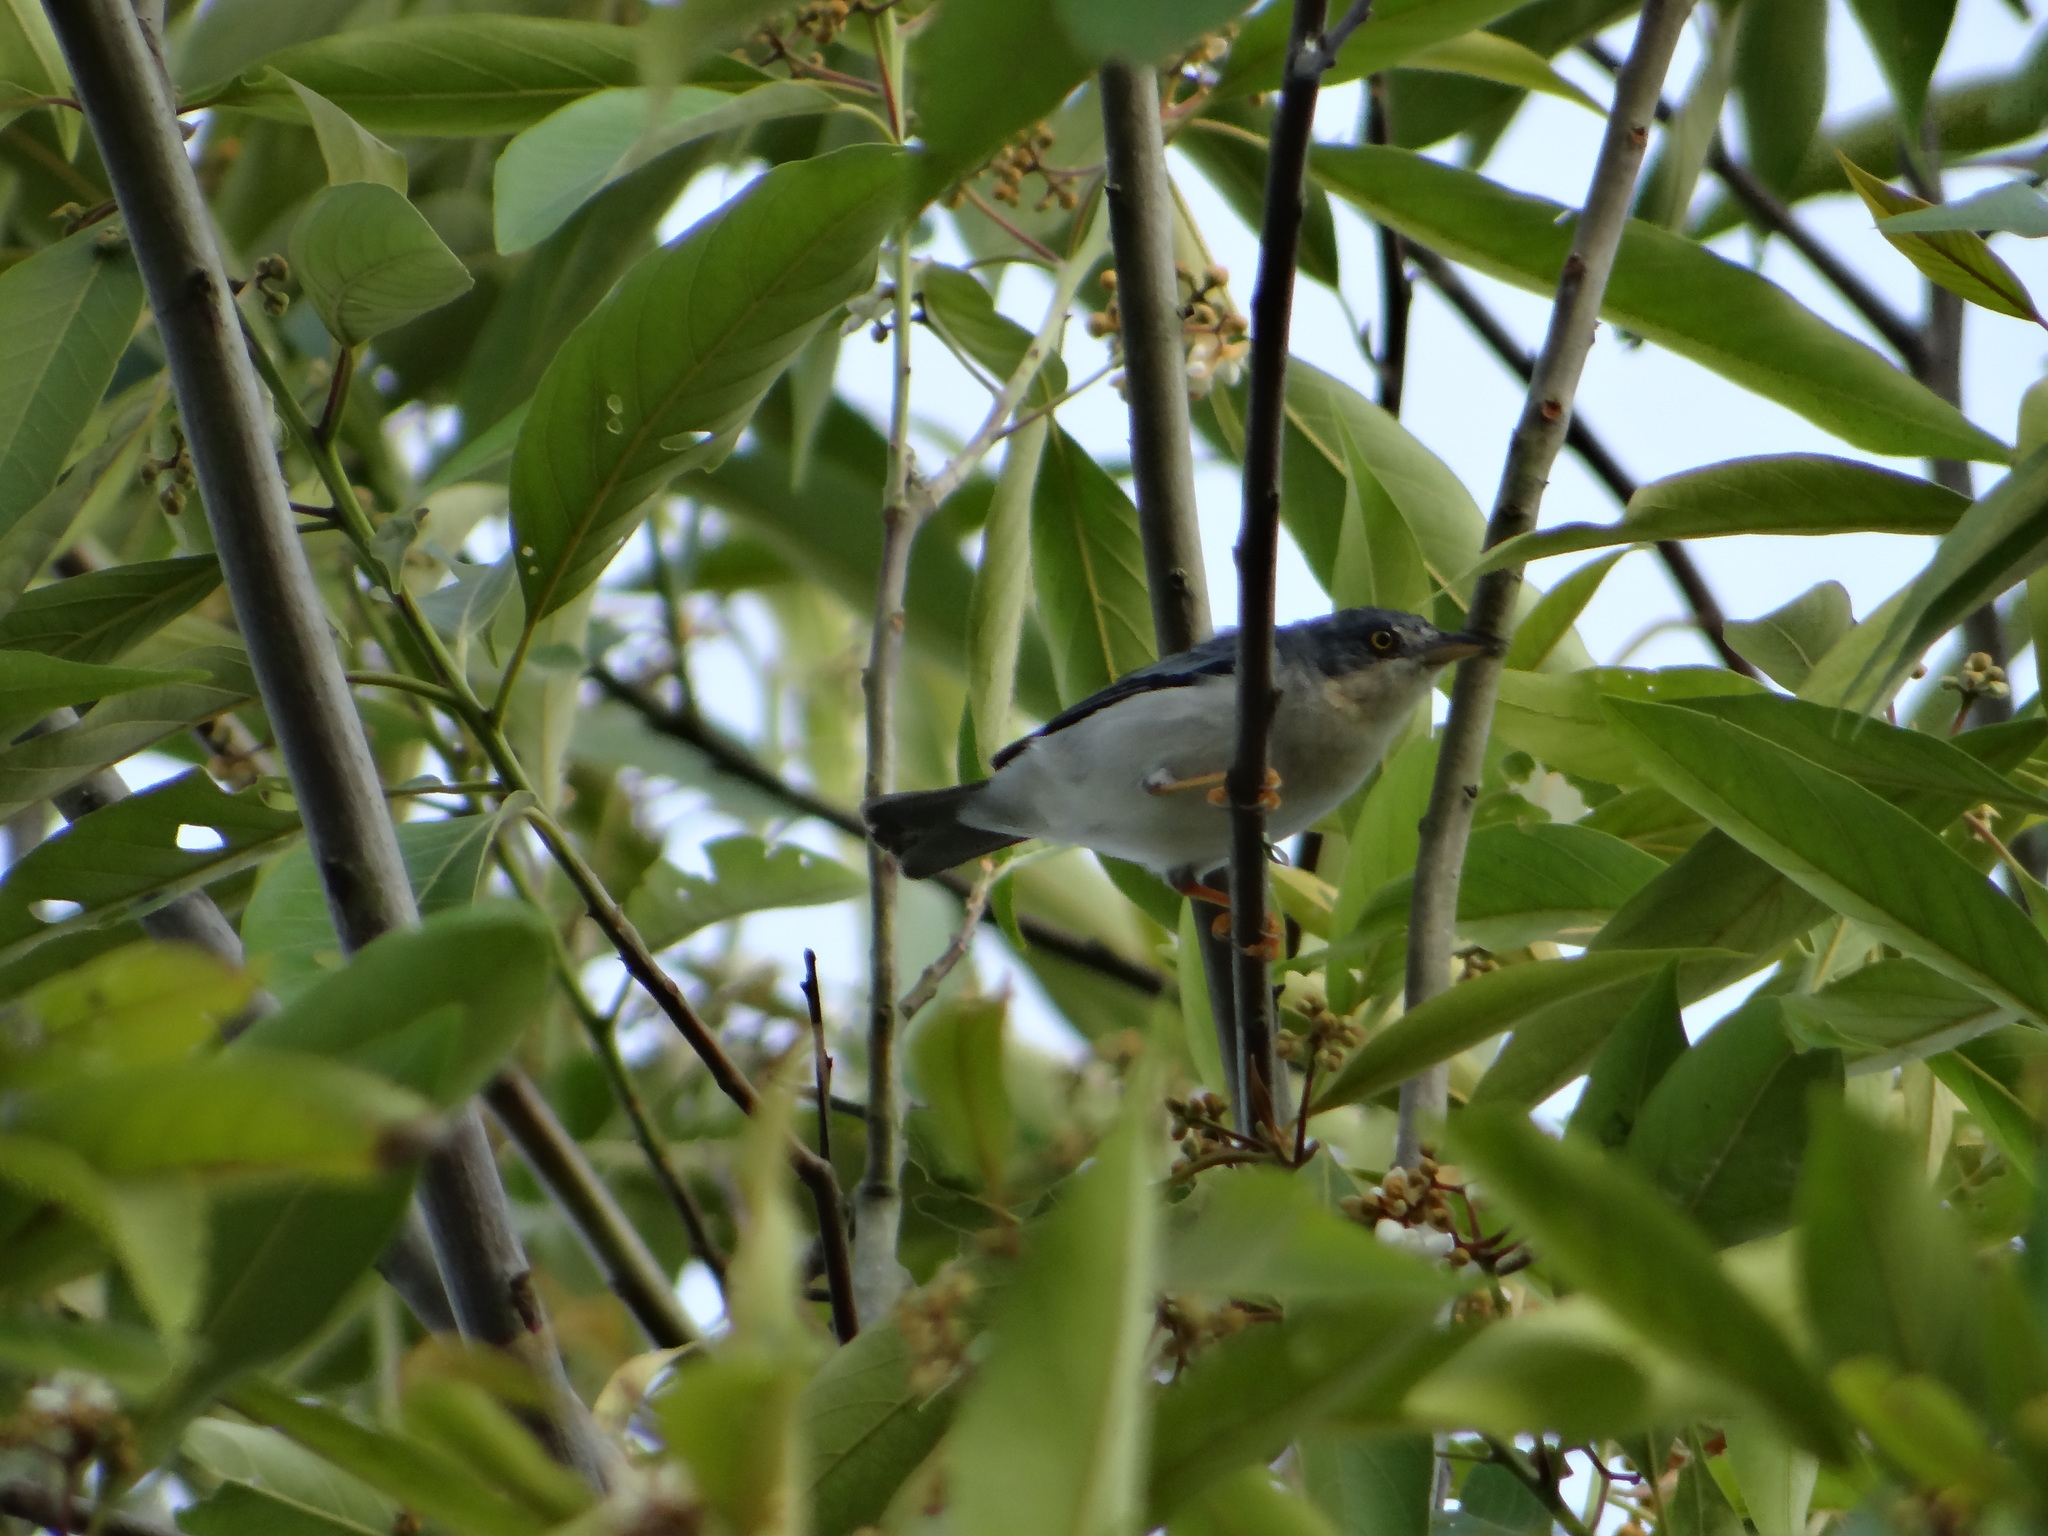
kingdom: Animalia
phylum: Chordata
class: Aves
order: Passeriformes
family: Thraupidae
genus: Nemosia
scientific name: Nemosia pileata
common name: Hooded tanager
